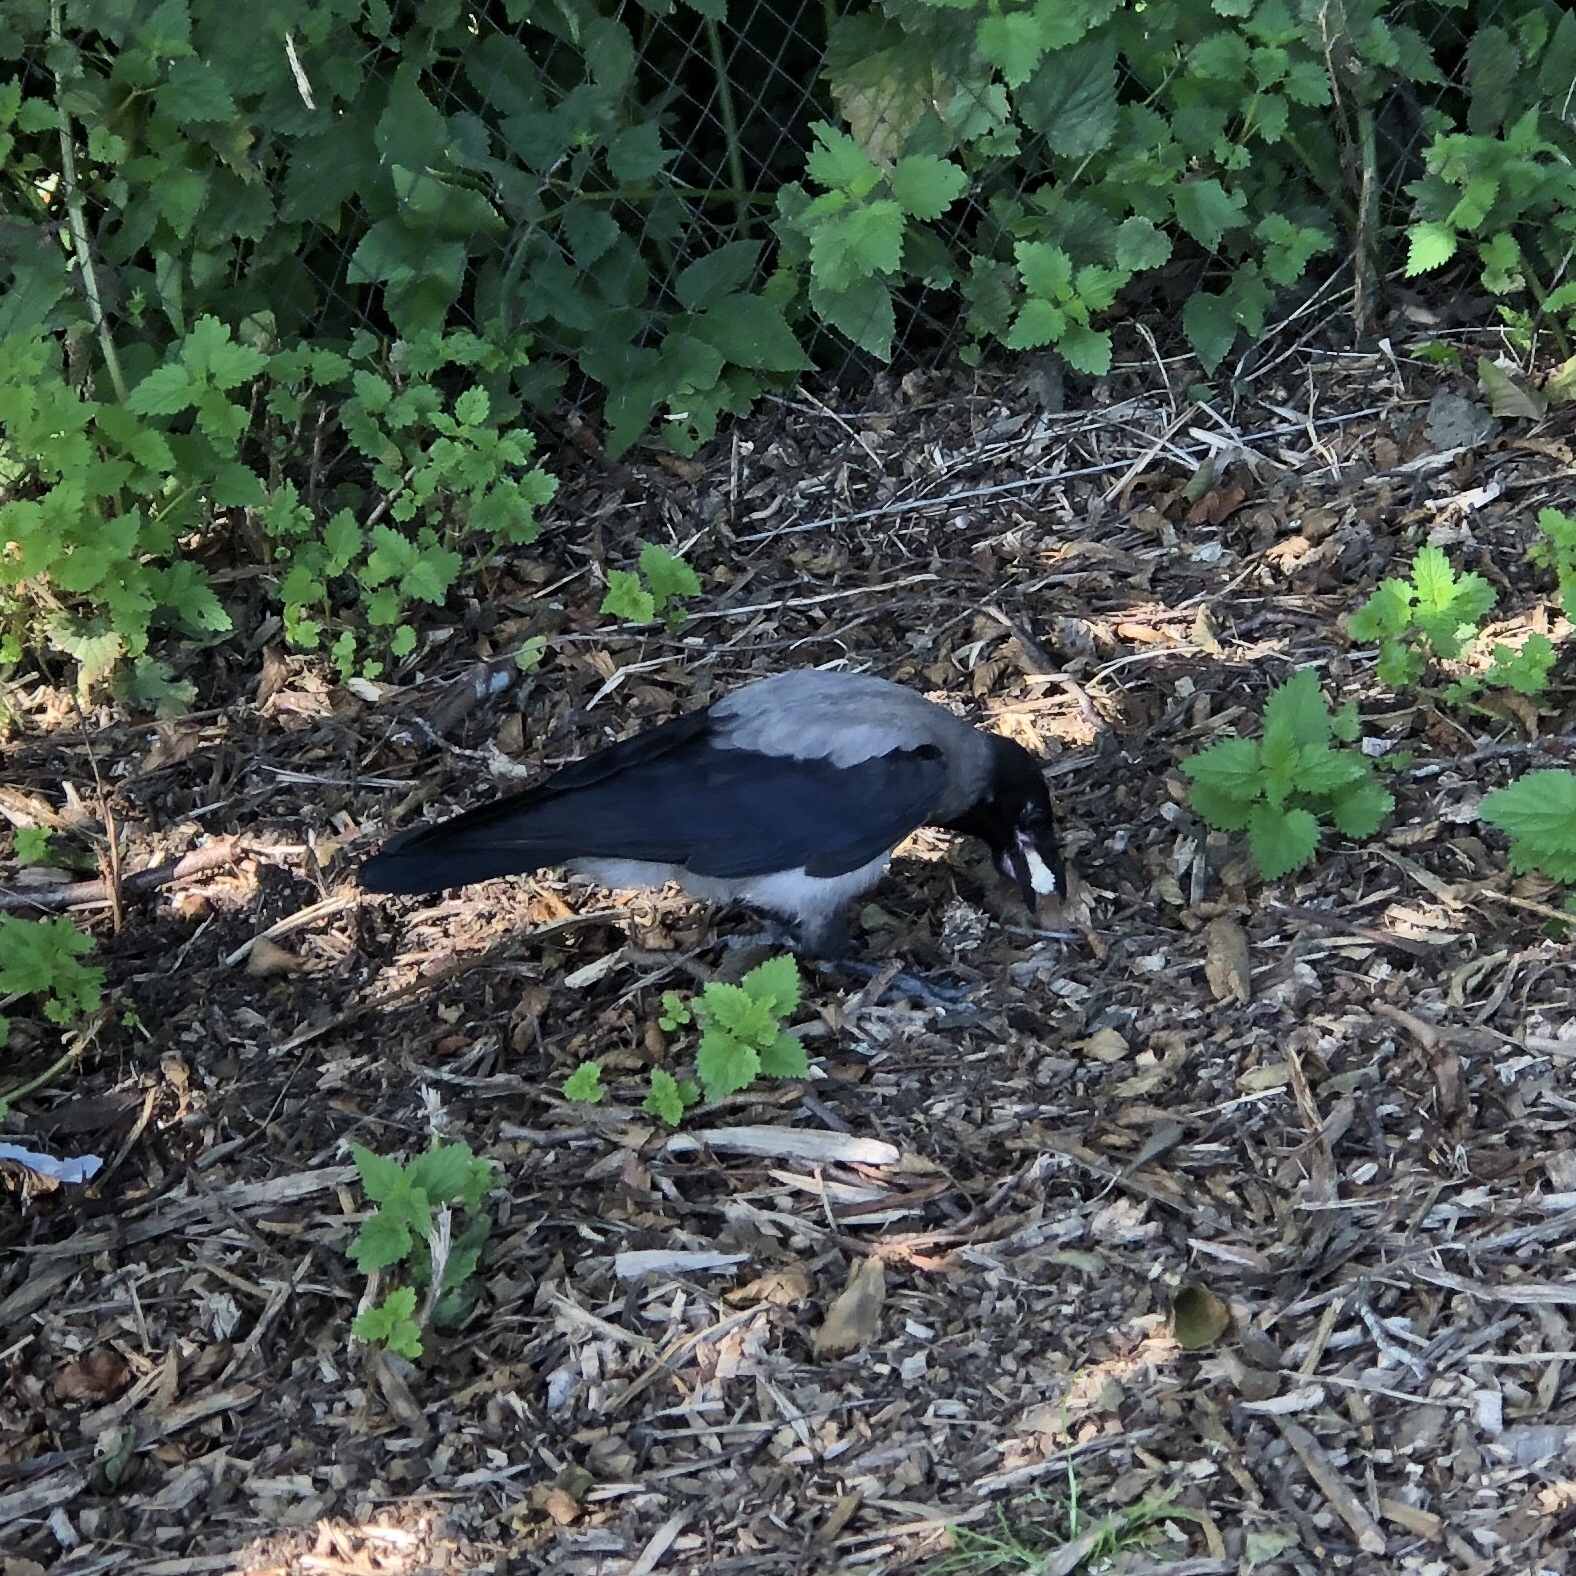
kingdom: Animalia
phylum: Chordata
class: Aves
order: Passeriformes
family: Corvidae
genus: Corvus
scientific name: Corvus cornix
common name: Hooded crow
